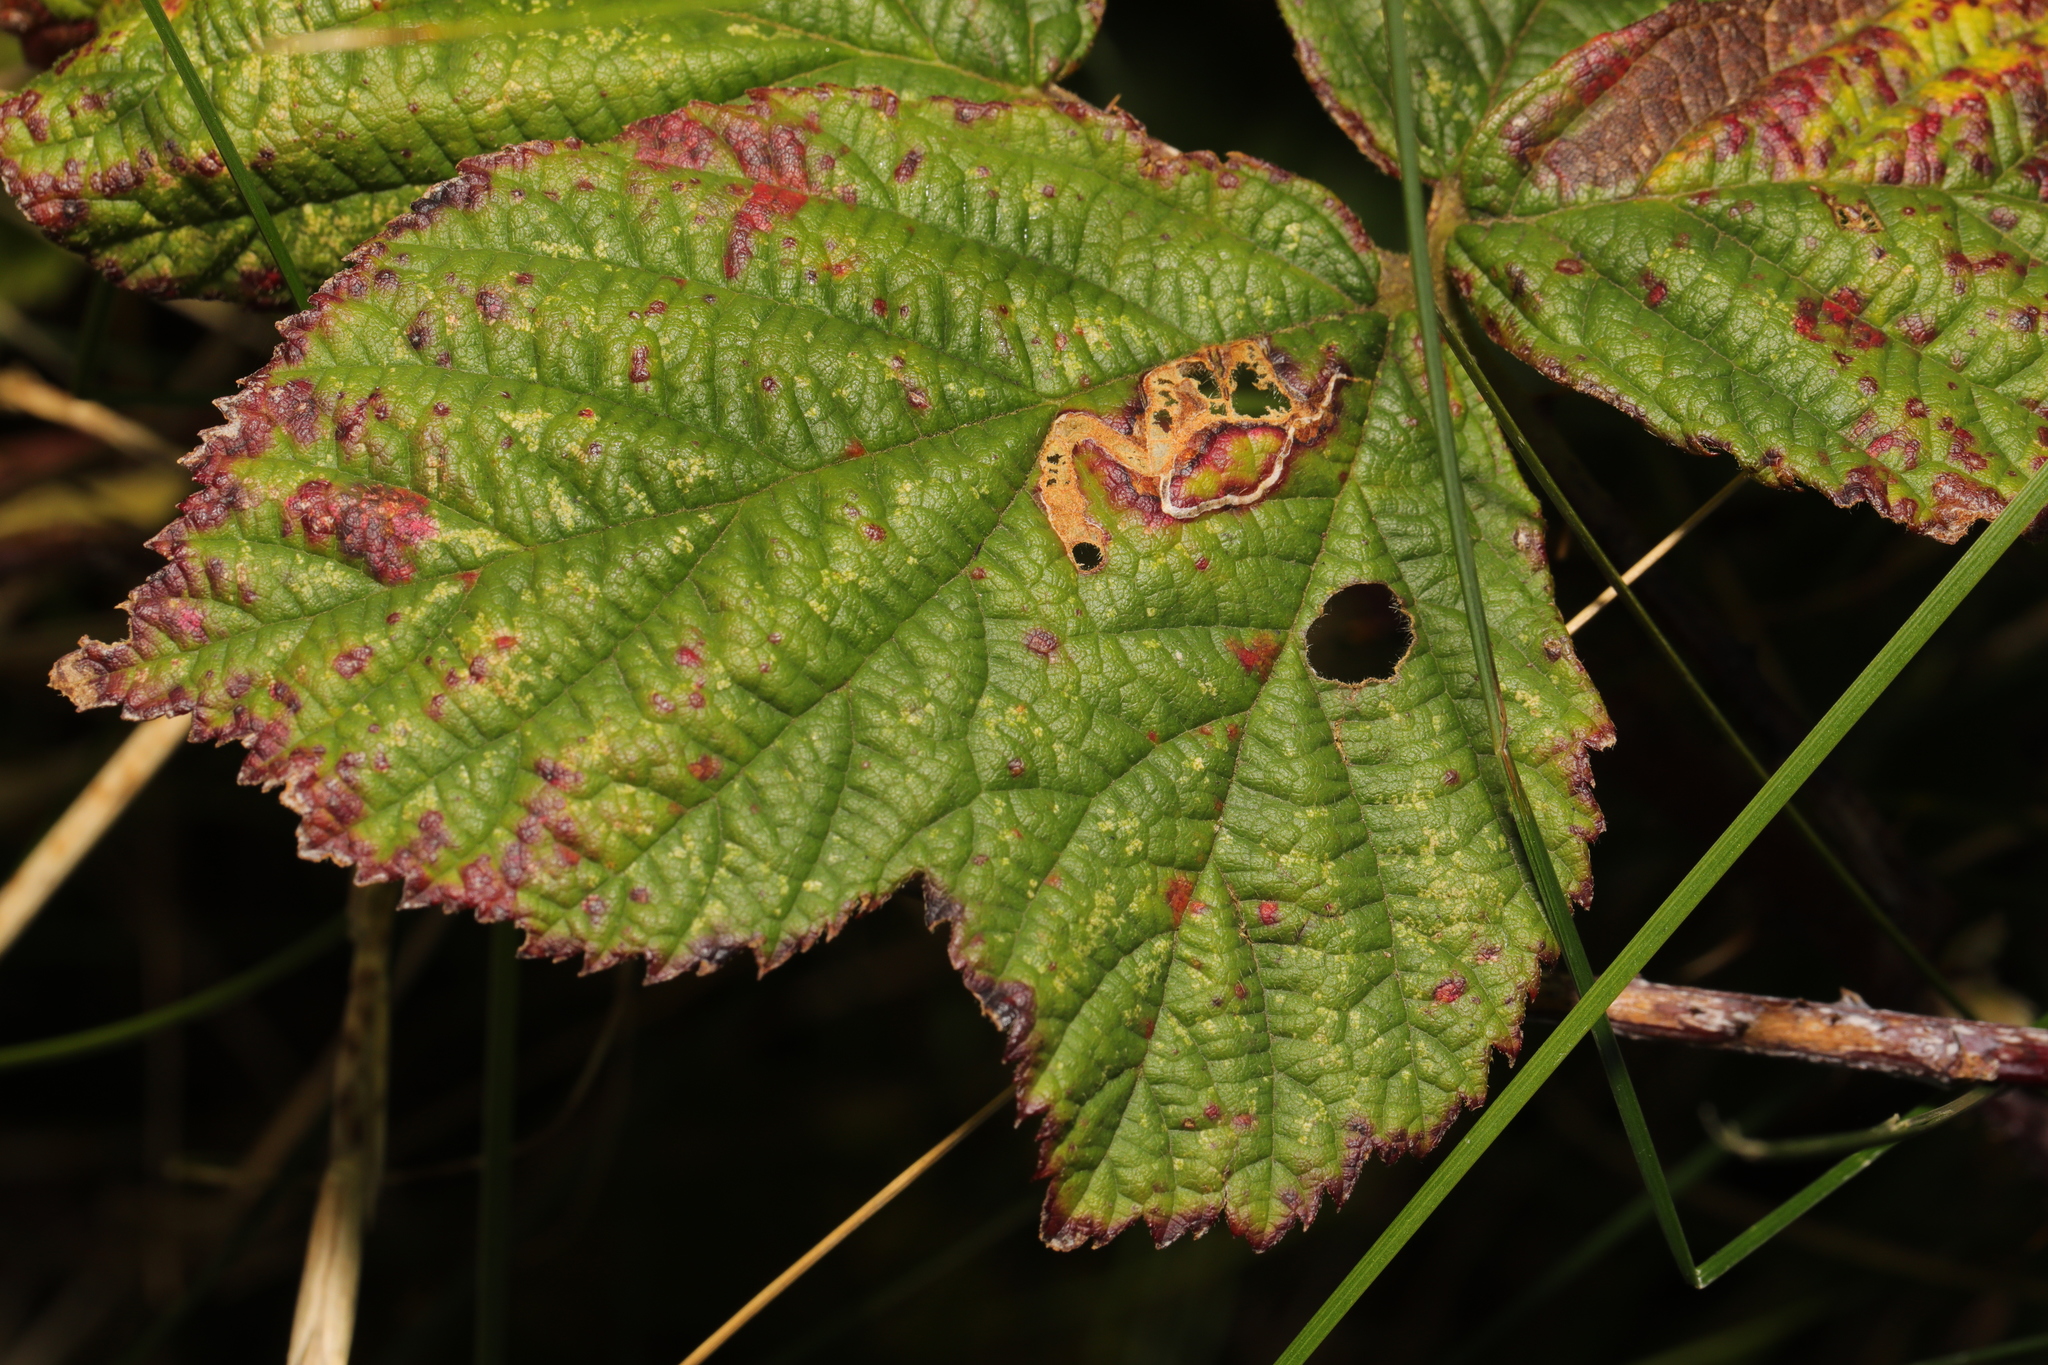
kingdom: Animalia
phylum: Arthropoda
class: Insecta
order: Lepidoptera
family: Nepticulidae
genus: Stigmella
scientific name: Stigmella aurella
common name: Golden pigmy
